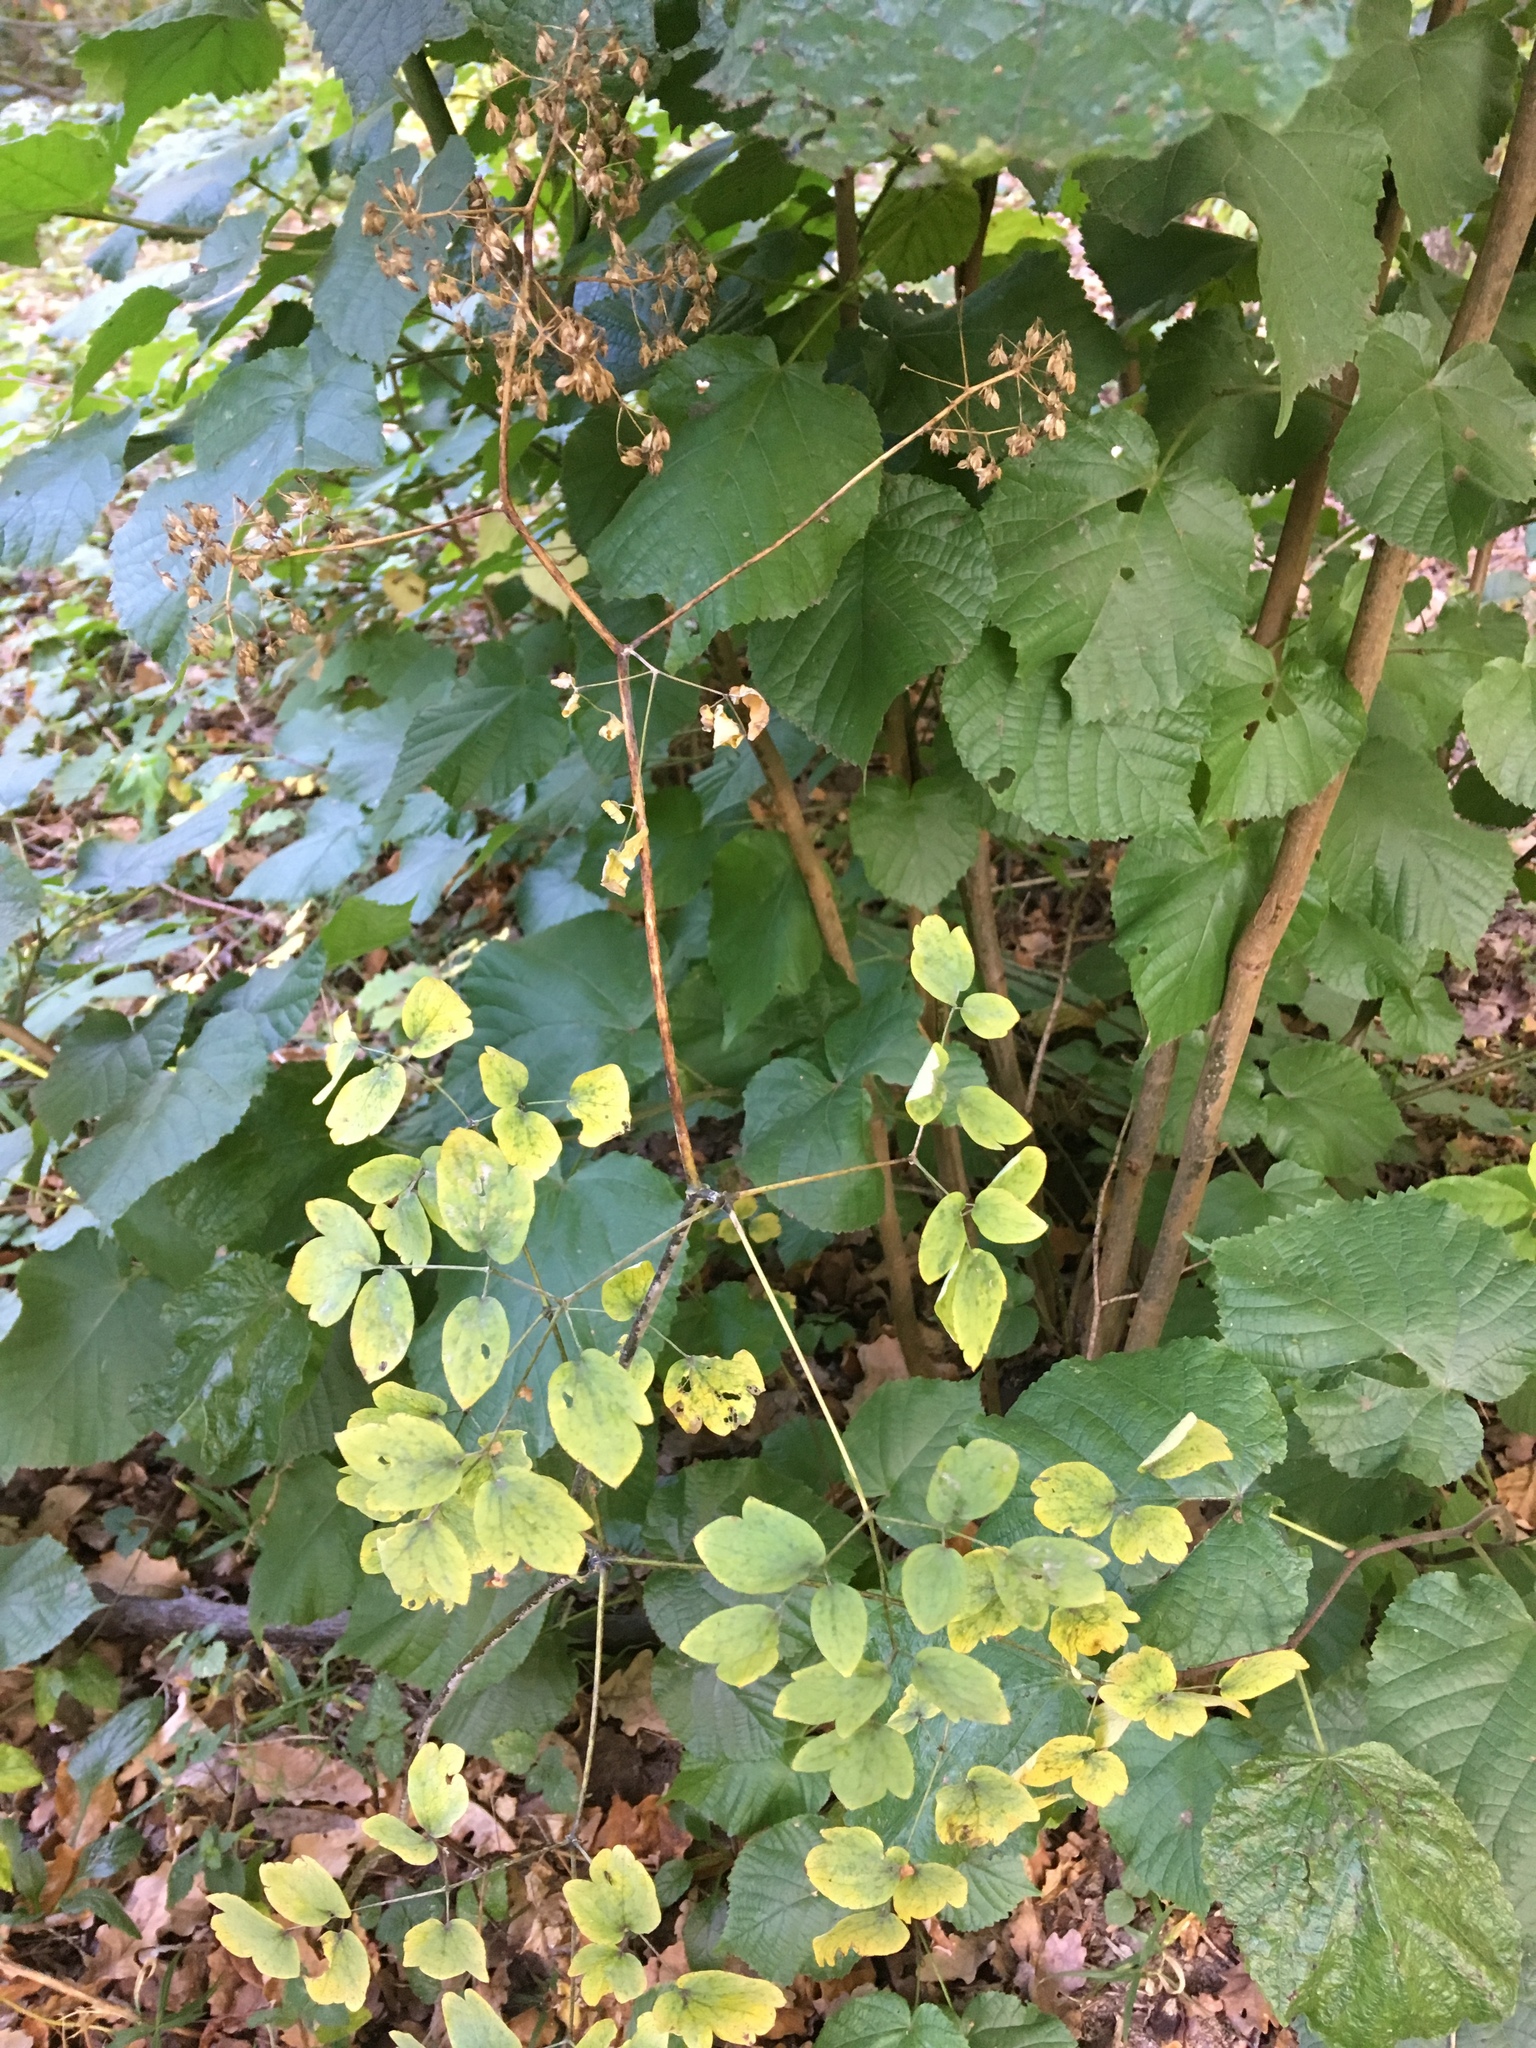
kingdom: Plantae
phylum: Tracheophyta
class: Magnoliopsida
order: Ranunculales
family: Ranunculaceae
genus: Thalictrum
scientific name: Thalictrum aquilegiifolium
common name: French meadow-rue
